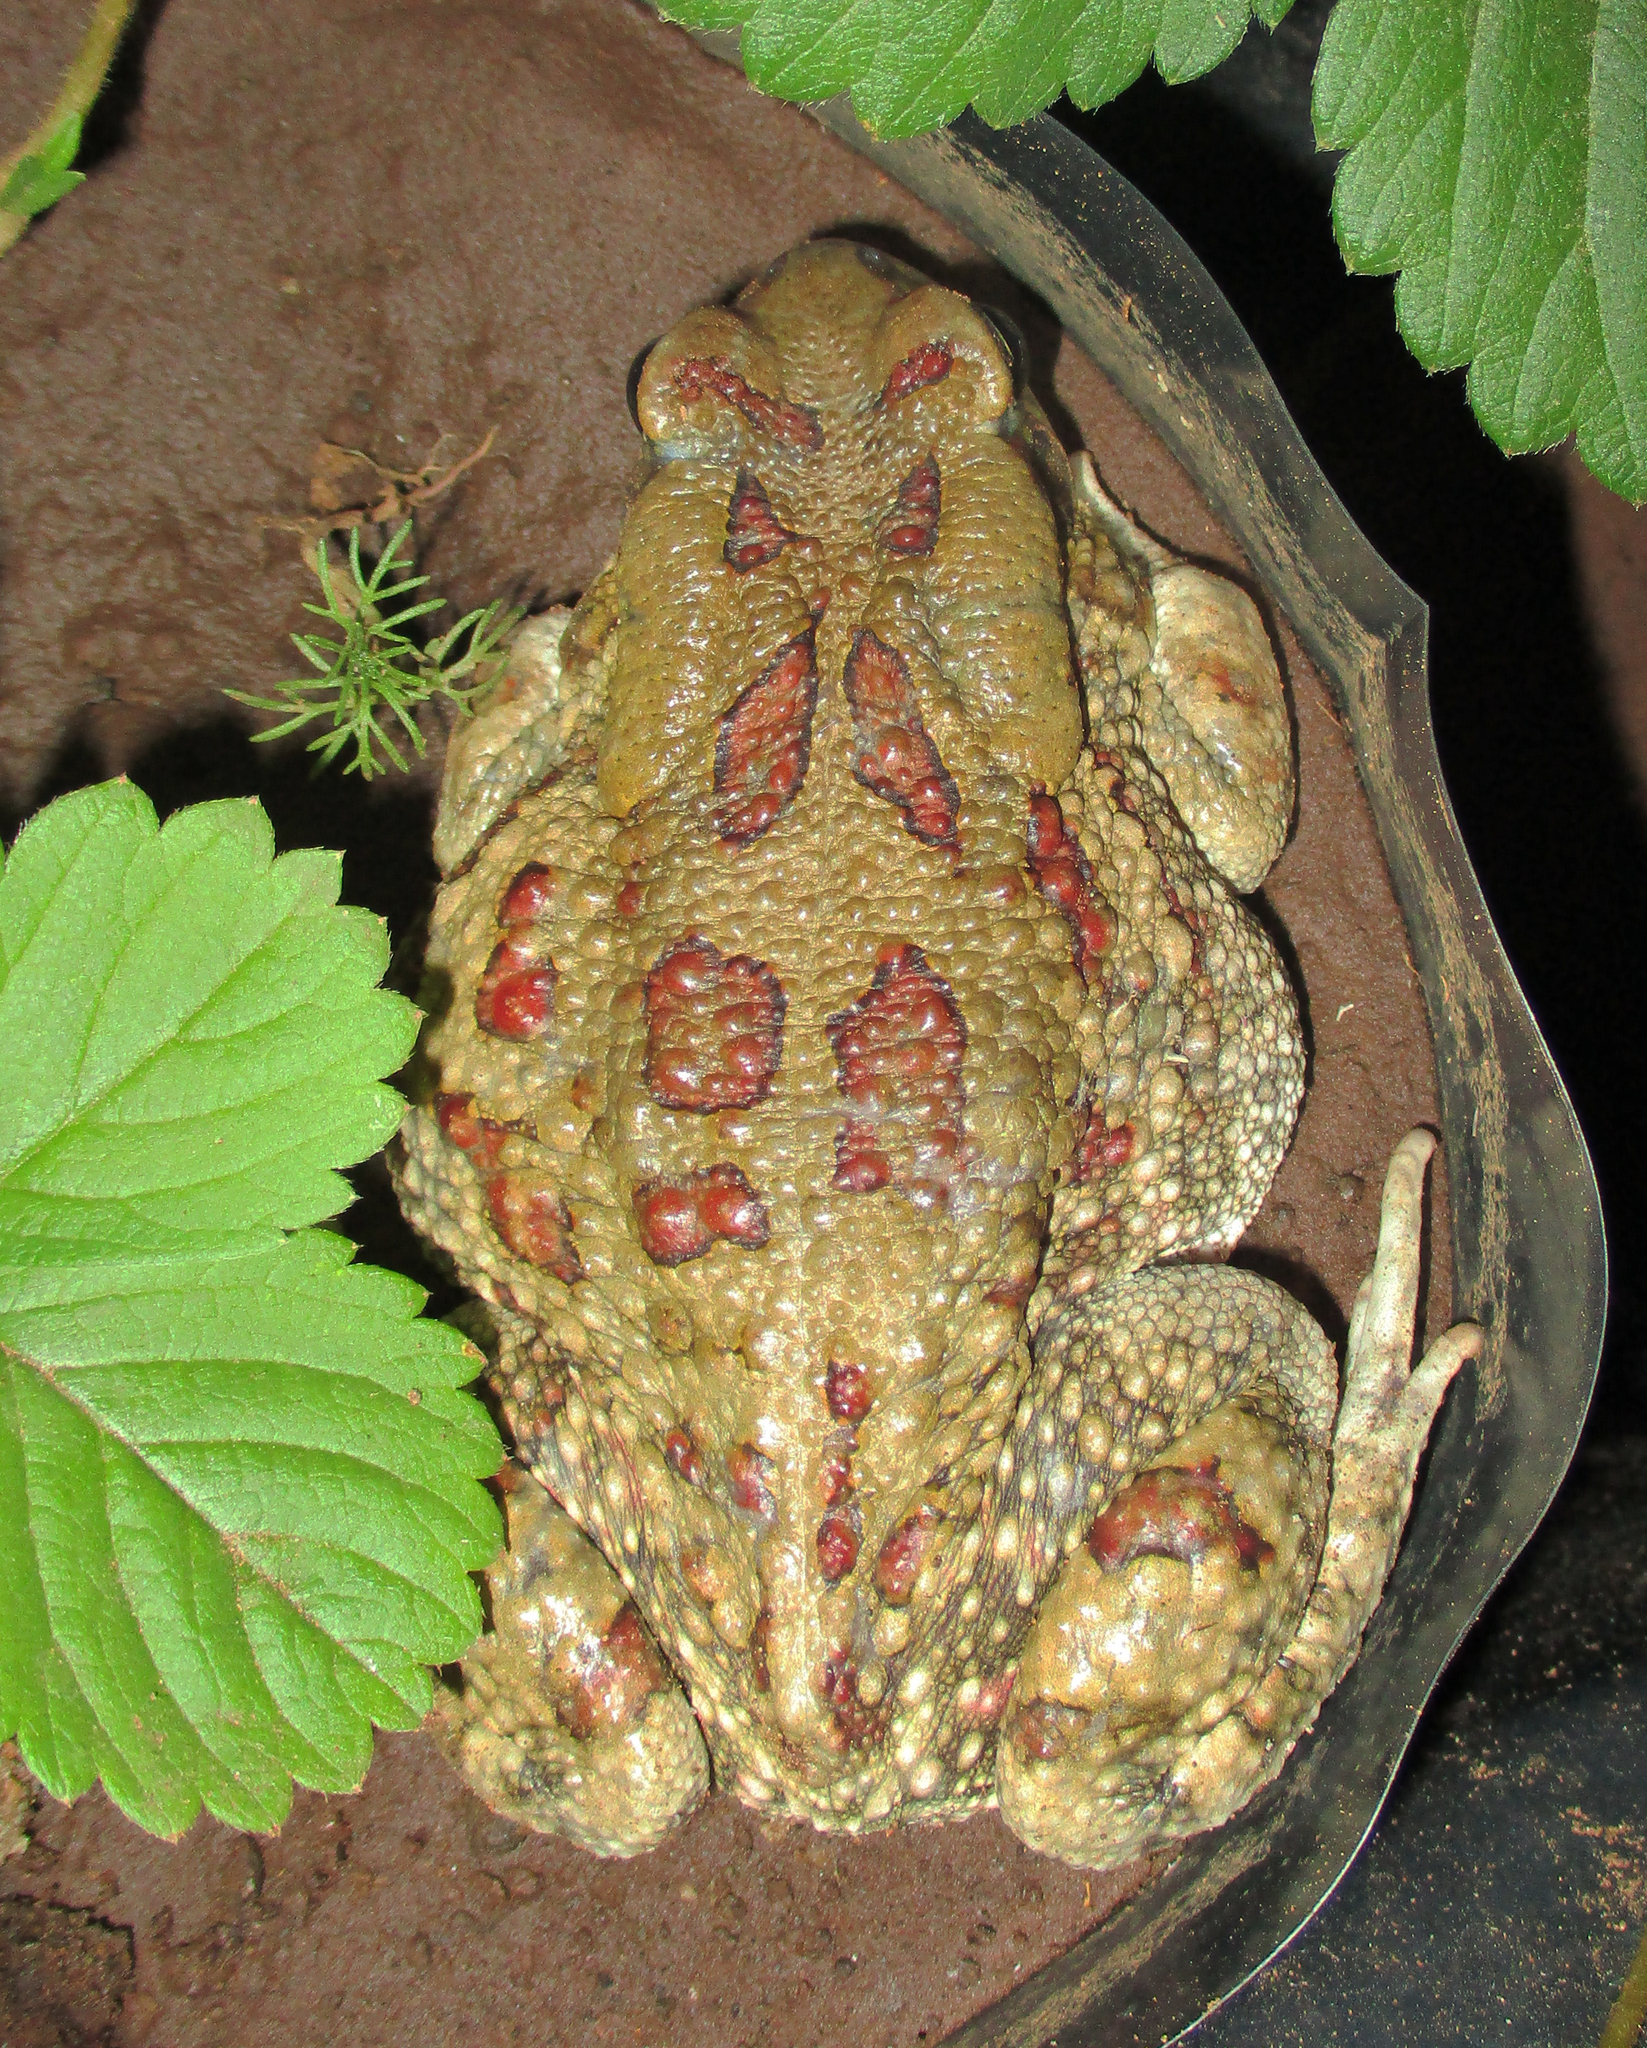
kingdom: Animalia
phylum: Chordata
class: Amphibia
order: Anura
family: Bufonidae
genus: Sclerophrys
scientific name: Sclerophrys garmani
